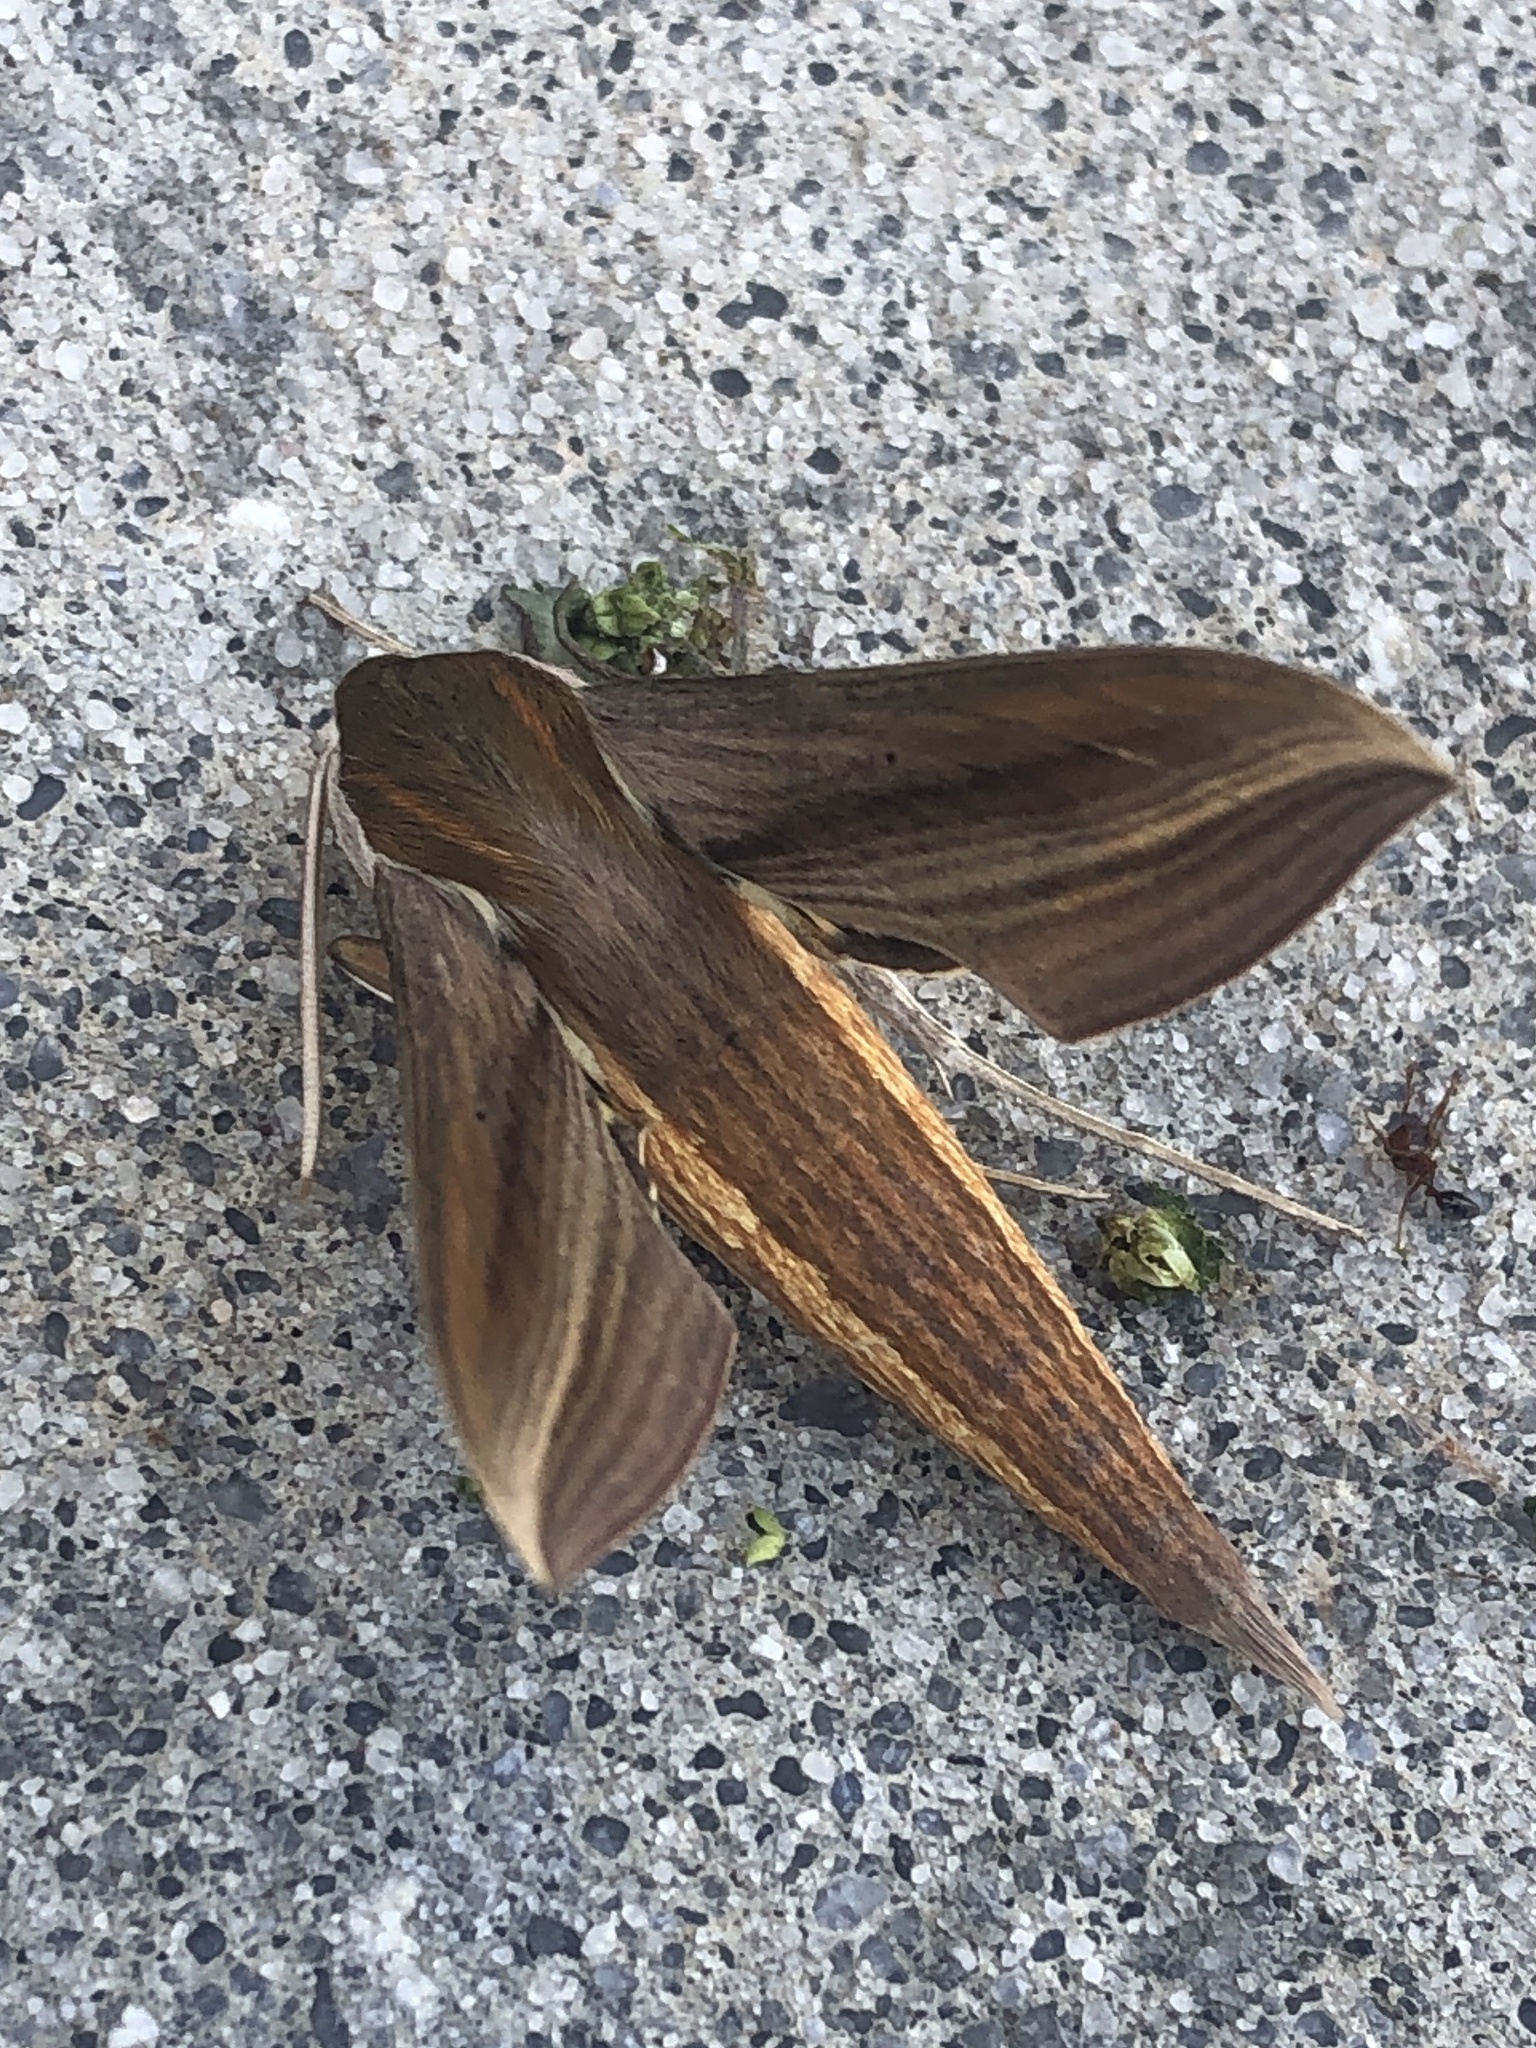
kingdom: Animalia
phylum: Arthropoda
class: Insecta
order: Lepidoptera
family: Sphingidae
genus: Xylophanes
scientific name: Xylophanes tersa
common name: Tersa sphinx
